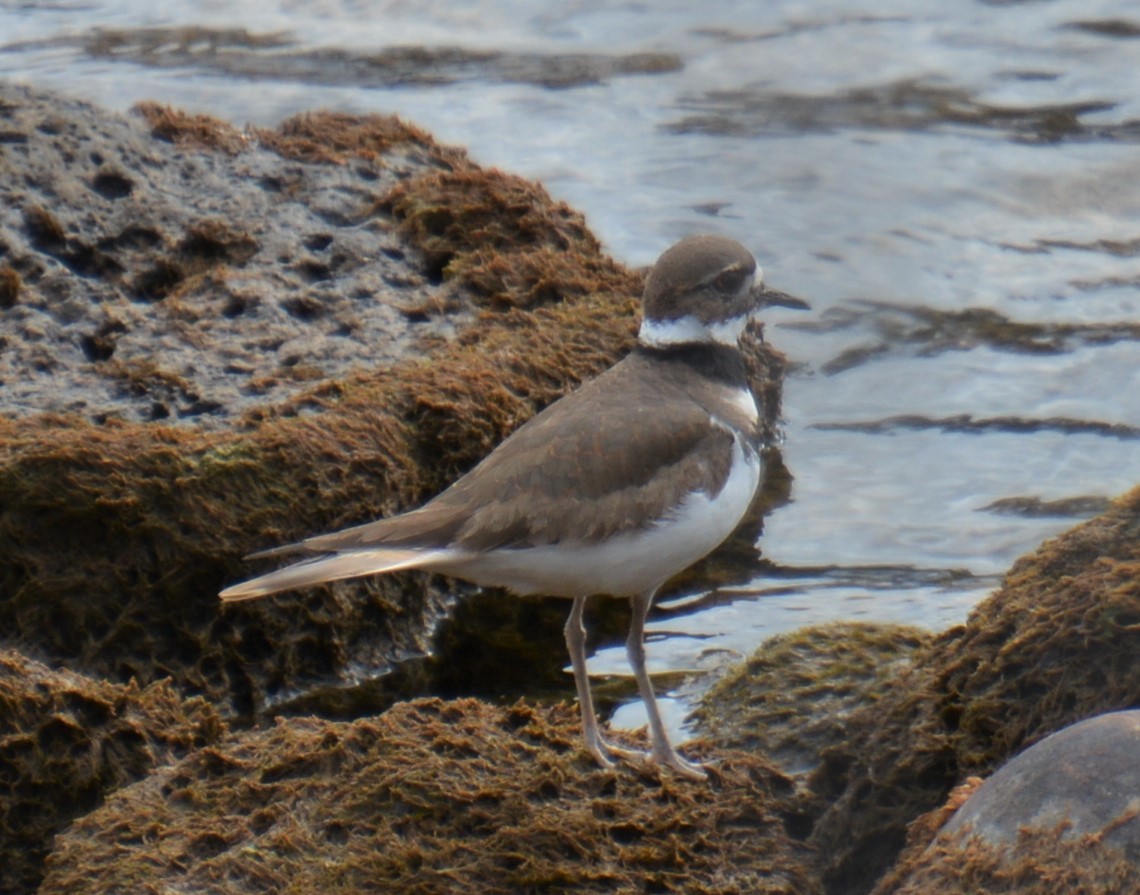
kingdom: Animalia
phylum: Chordata
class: Aves
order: Charadriiformes
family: Charadriidae
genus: Charadrius
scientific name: Charadrius vociferus
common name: Killdeer
